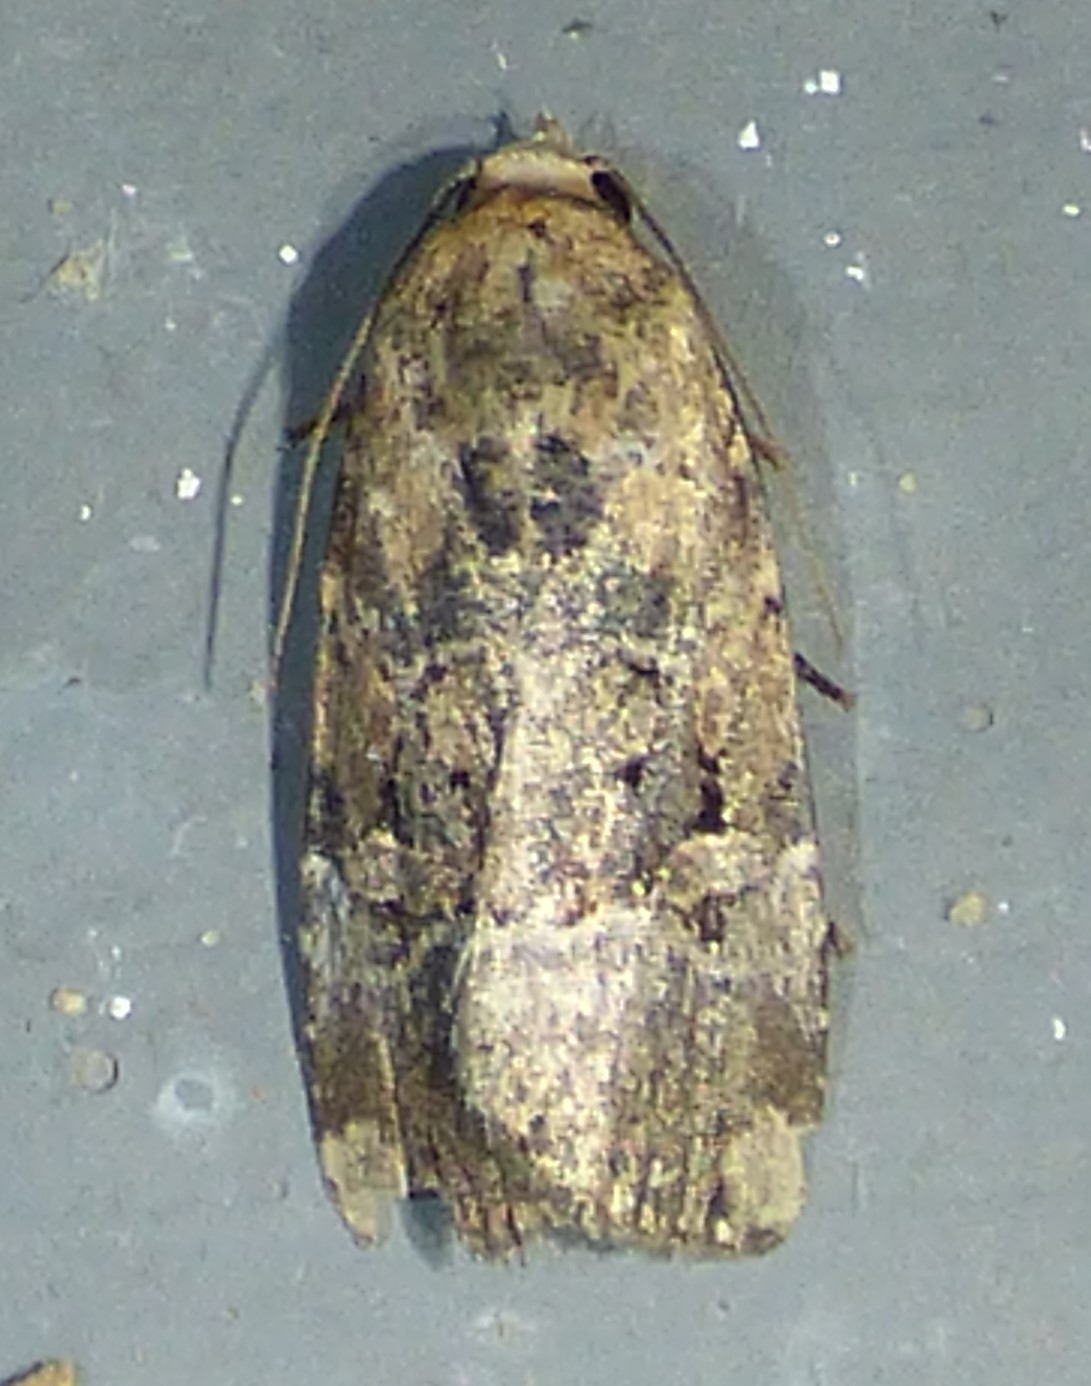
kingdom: Animalia
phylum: Arthropoda
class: Insecta
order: Lepidoptera
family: Noctuidae
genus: Elaphria
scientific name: Elaphria chalcedonia
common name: Chalcedony midget
